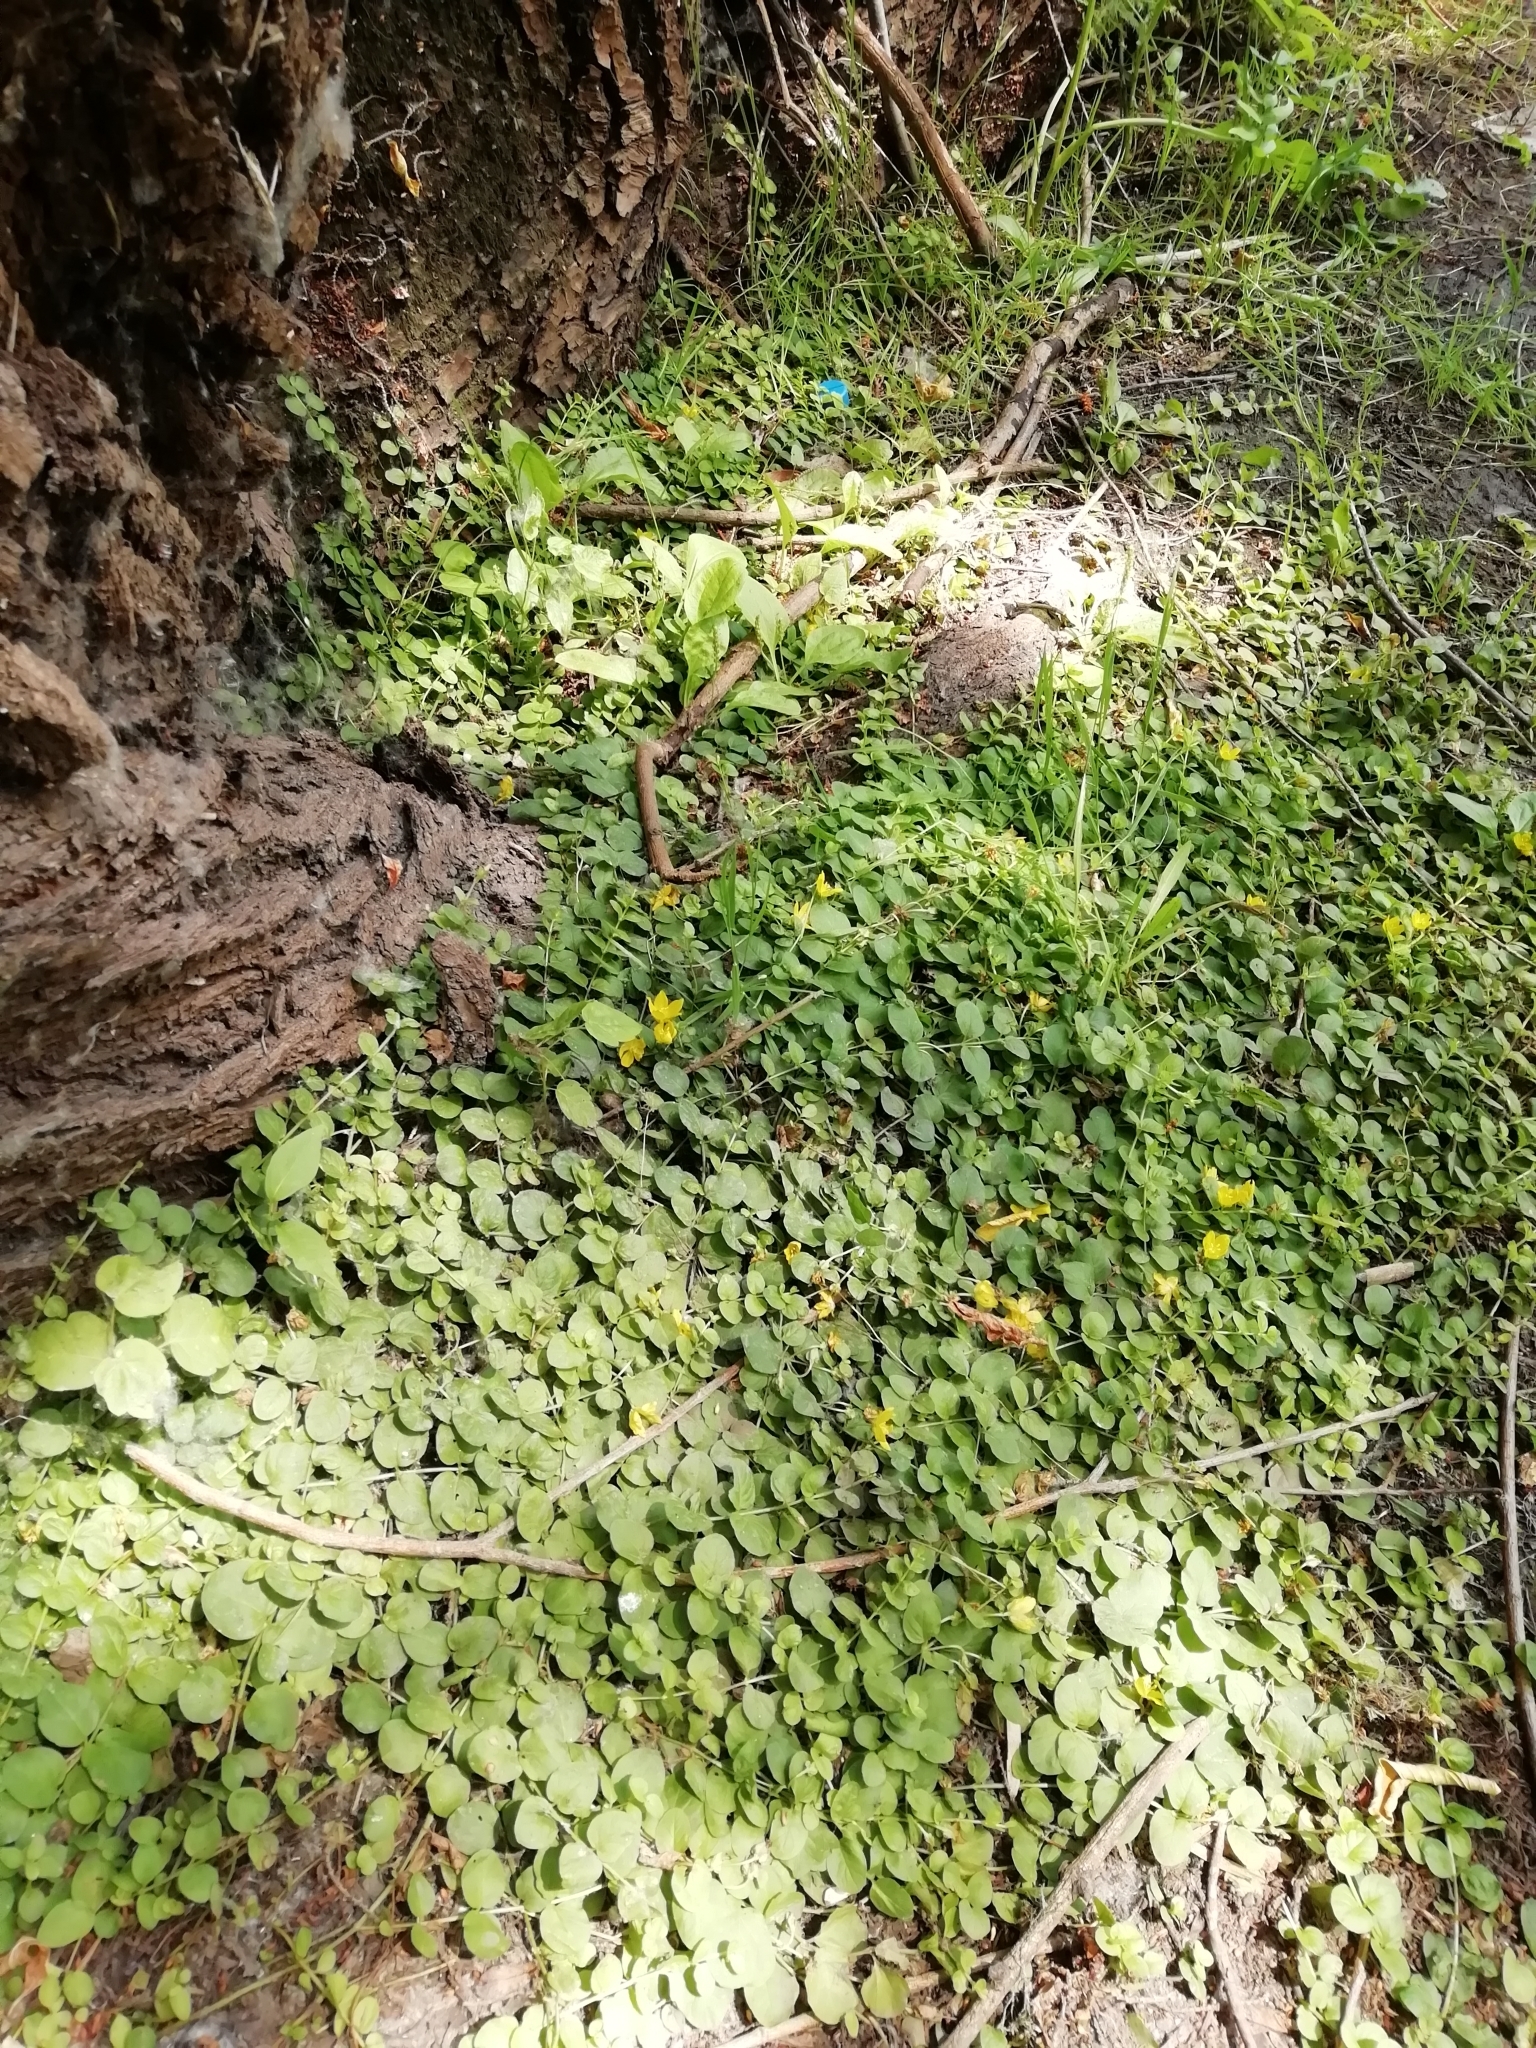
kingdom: Plantae
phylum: Tracheophyta
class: Magnoliopsida
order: Ericales
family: Primulaceae
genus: Lysimachia
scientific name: Lysimachia nummularia
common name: Moneywort
